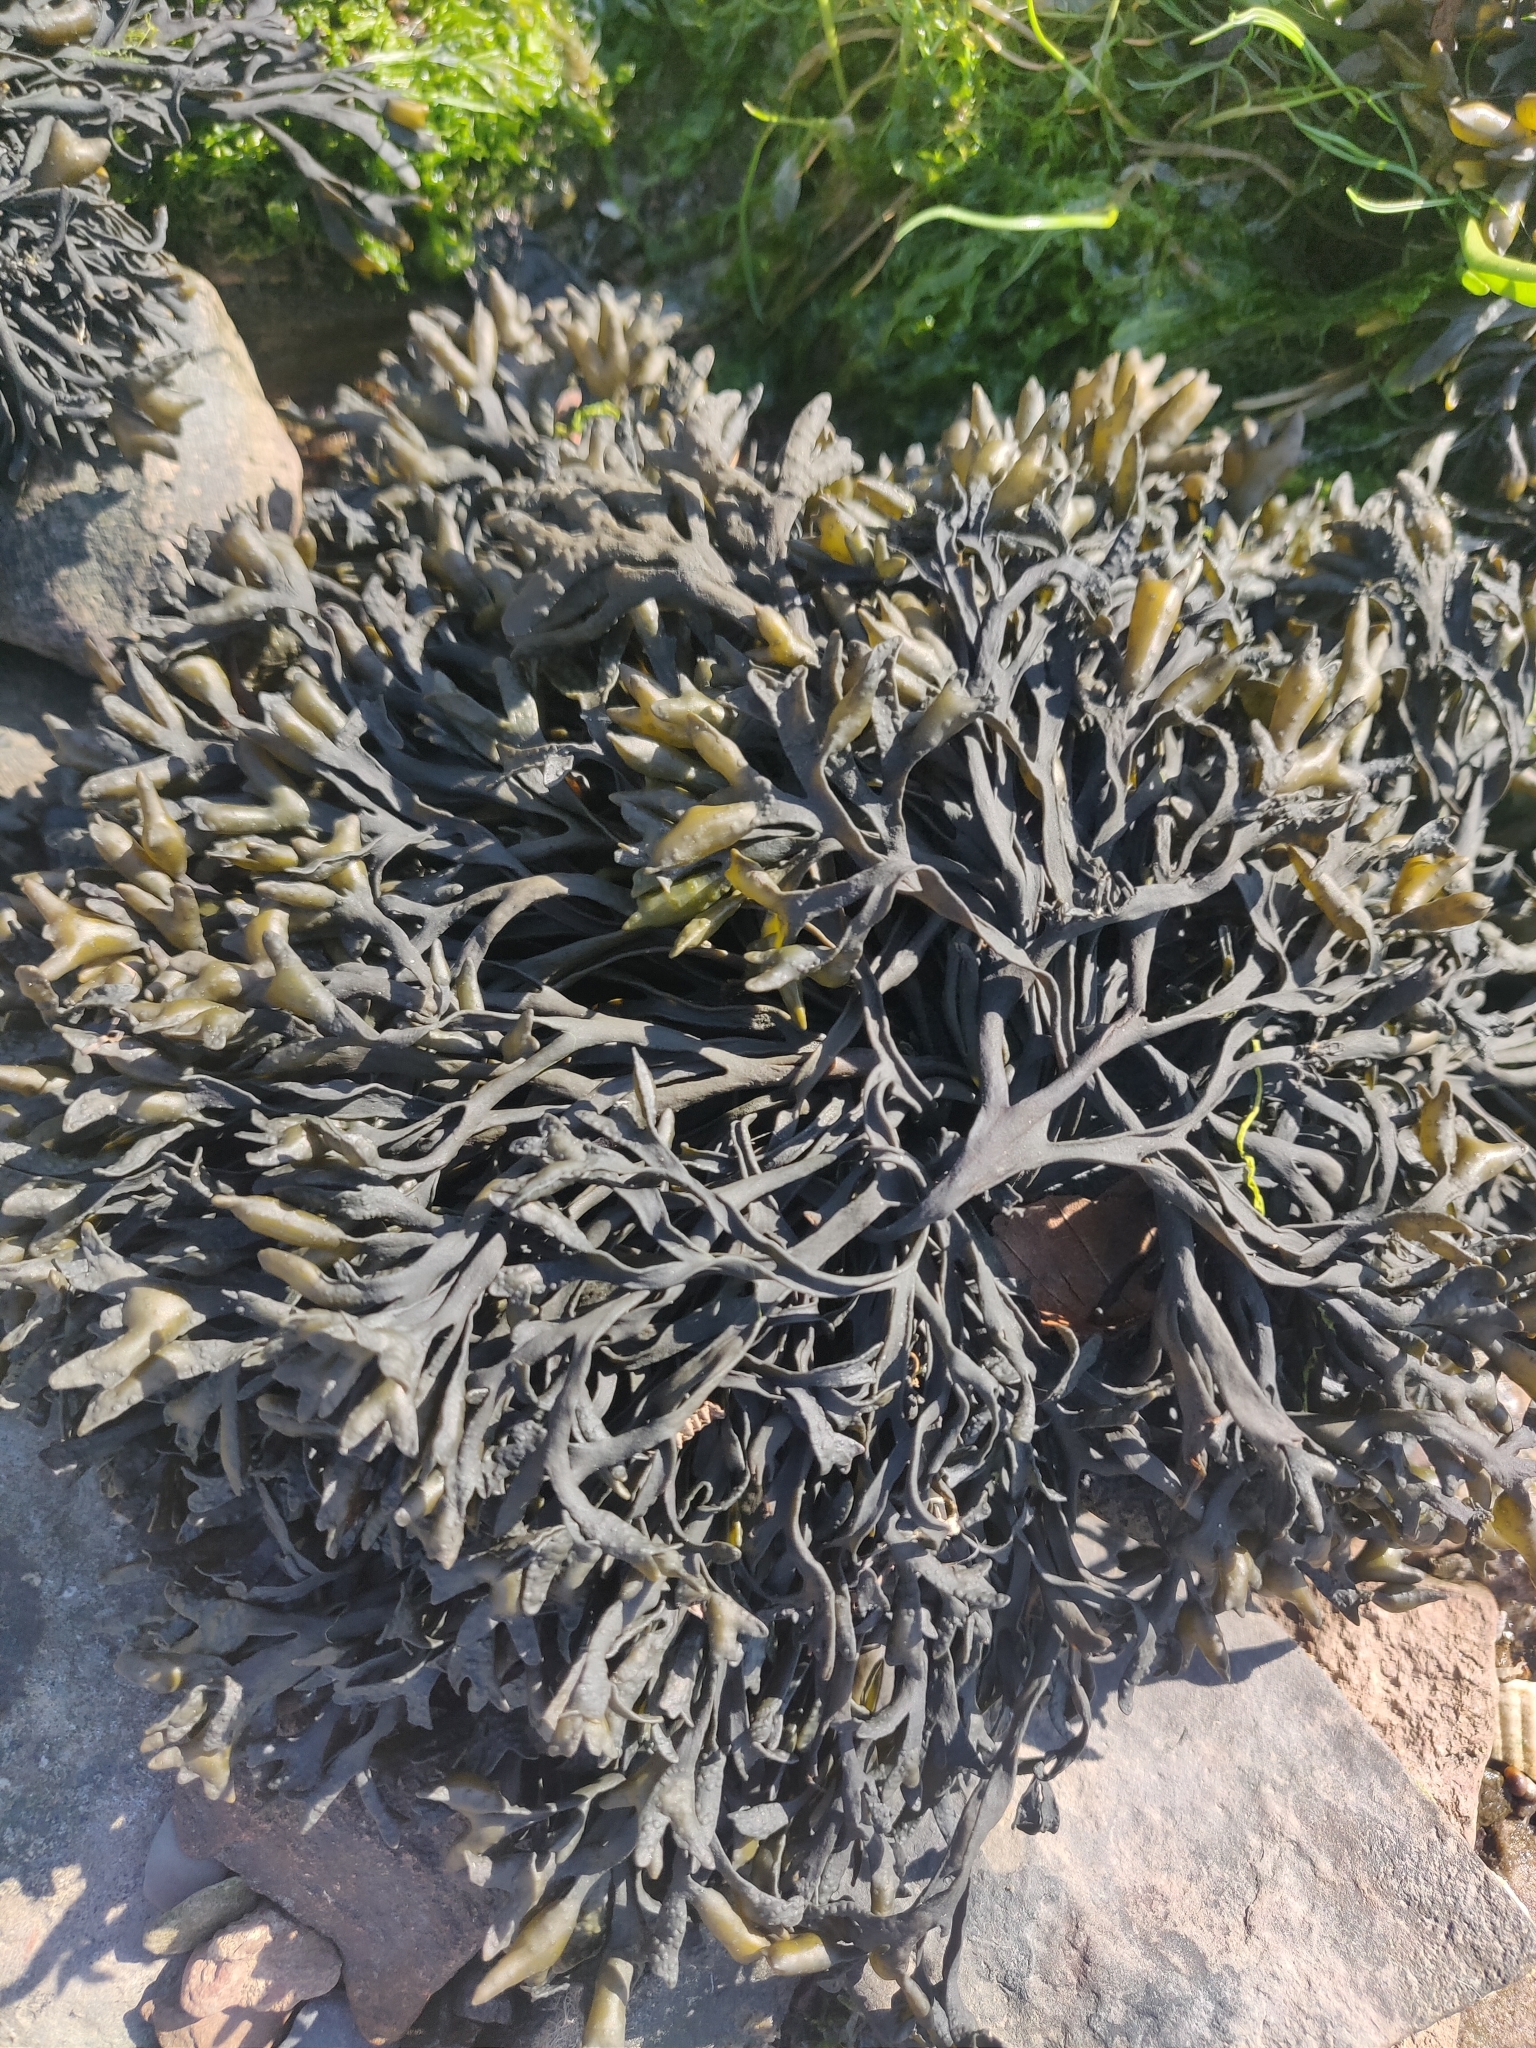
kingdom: Chromista
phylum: Ochrophyta
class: Phaeophyceae
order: Fucales
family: Fucaceae
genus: Pelvetia
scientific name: Pelvetia canaliculata
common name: Channelled wrack
